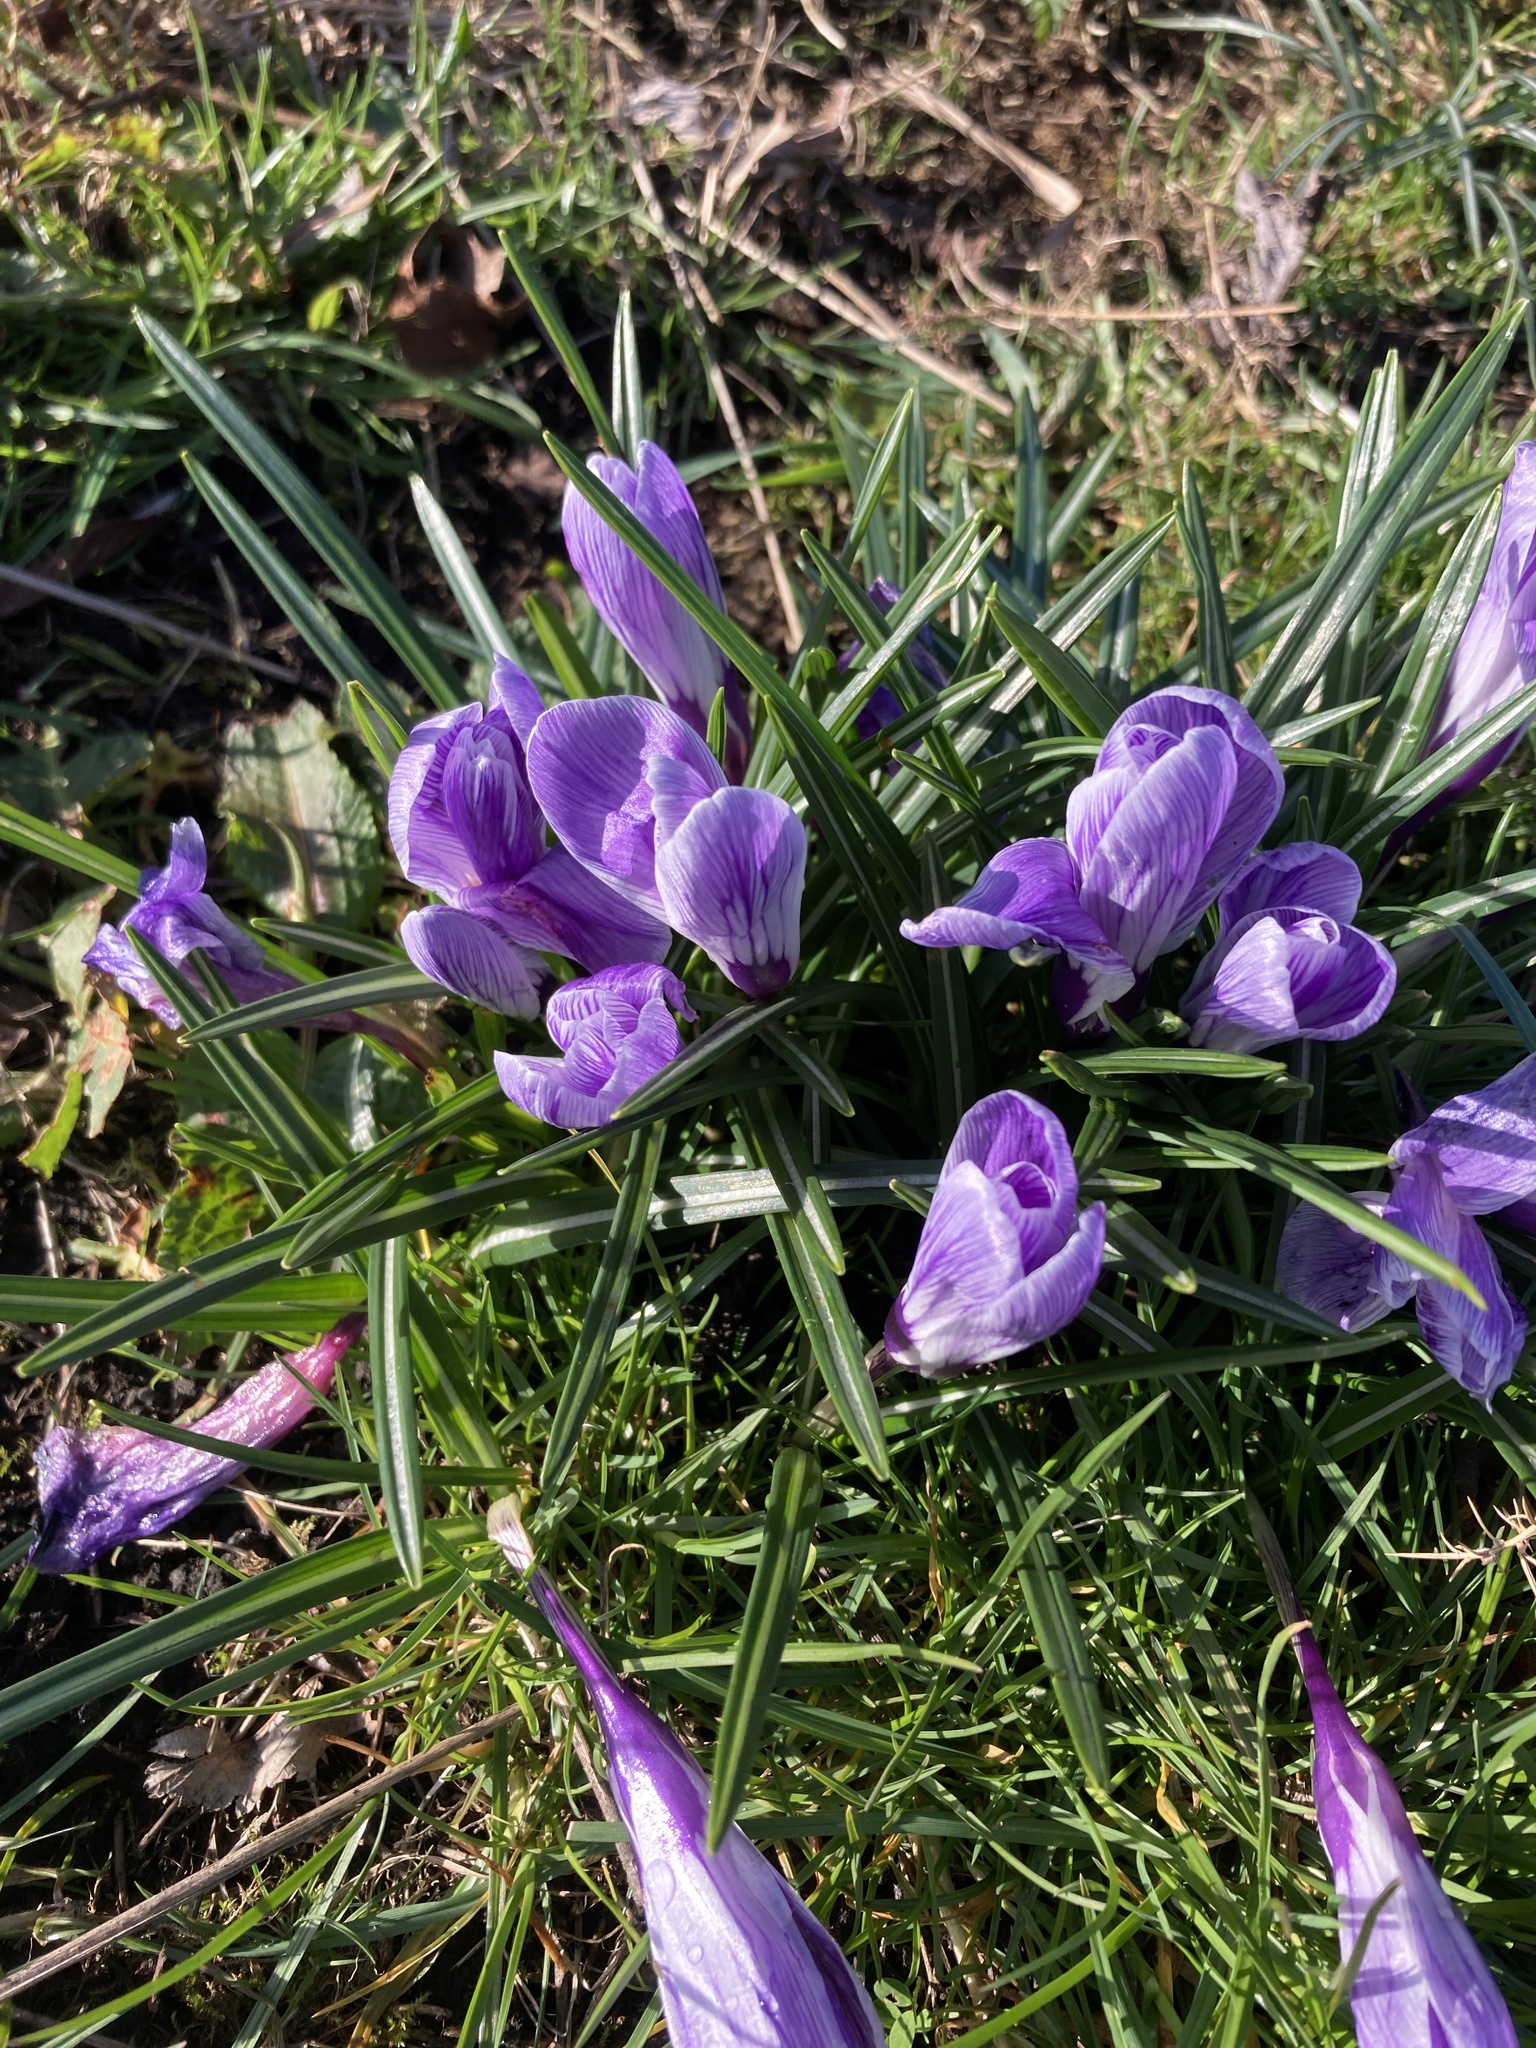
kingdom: Plantae
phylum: Tracheophyta
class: Liliopsida
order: Asparagales
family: Iridaceae
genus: Crocus
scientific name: Crocus neapolitanus
